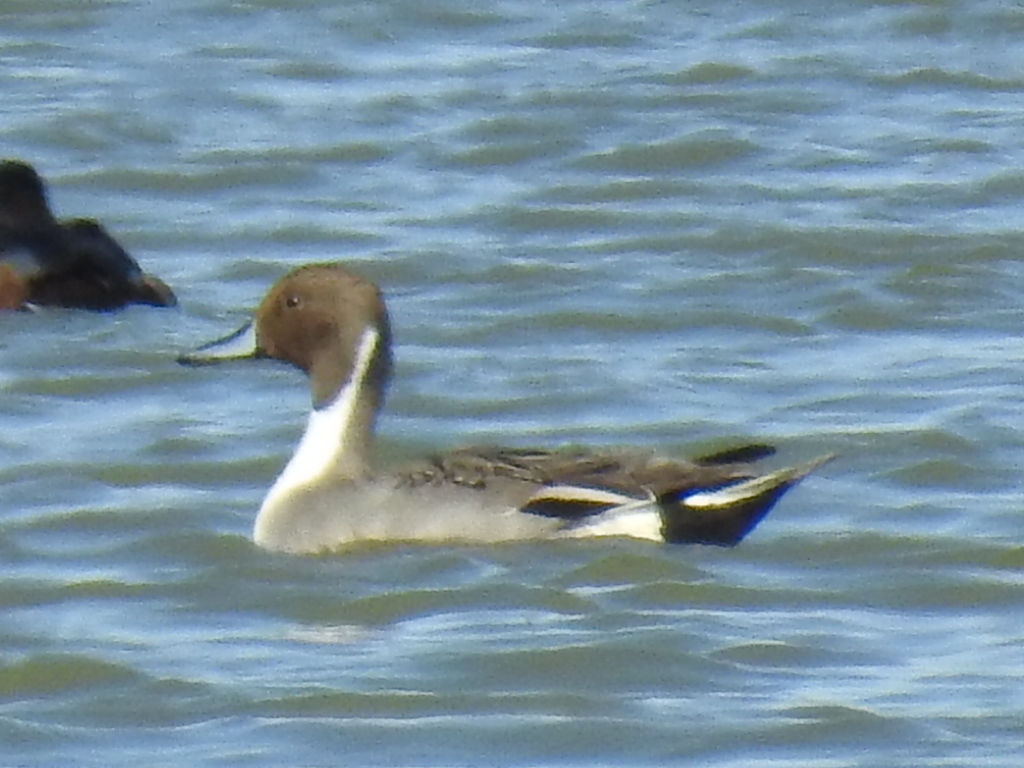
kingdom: Animalia
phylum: Chordata
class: Aves
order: Anseriformes
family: Anatidae
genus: Anas
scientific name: Anas acuta
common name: Northern pintail
